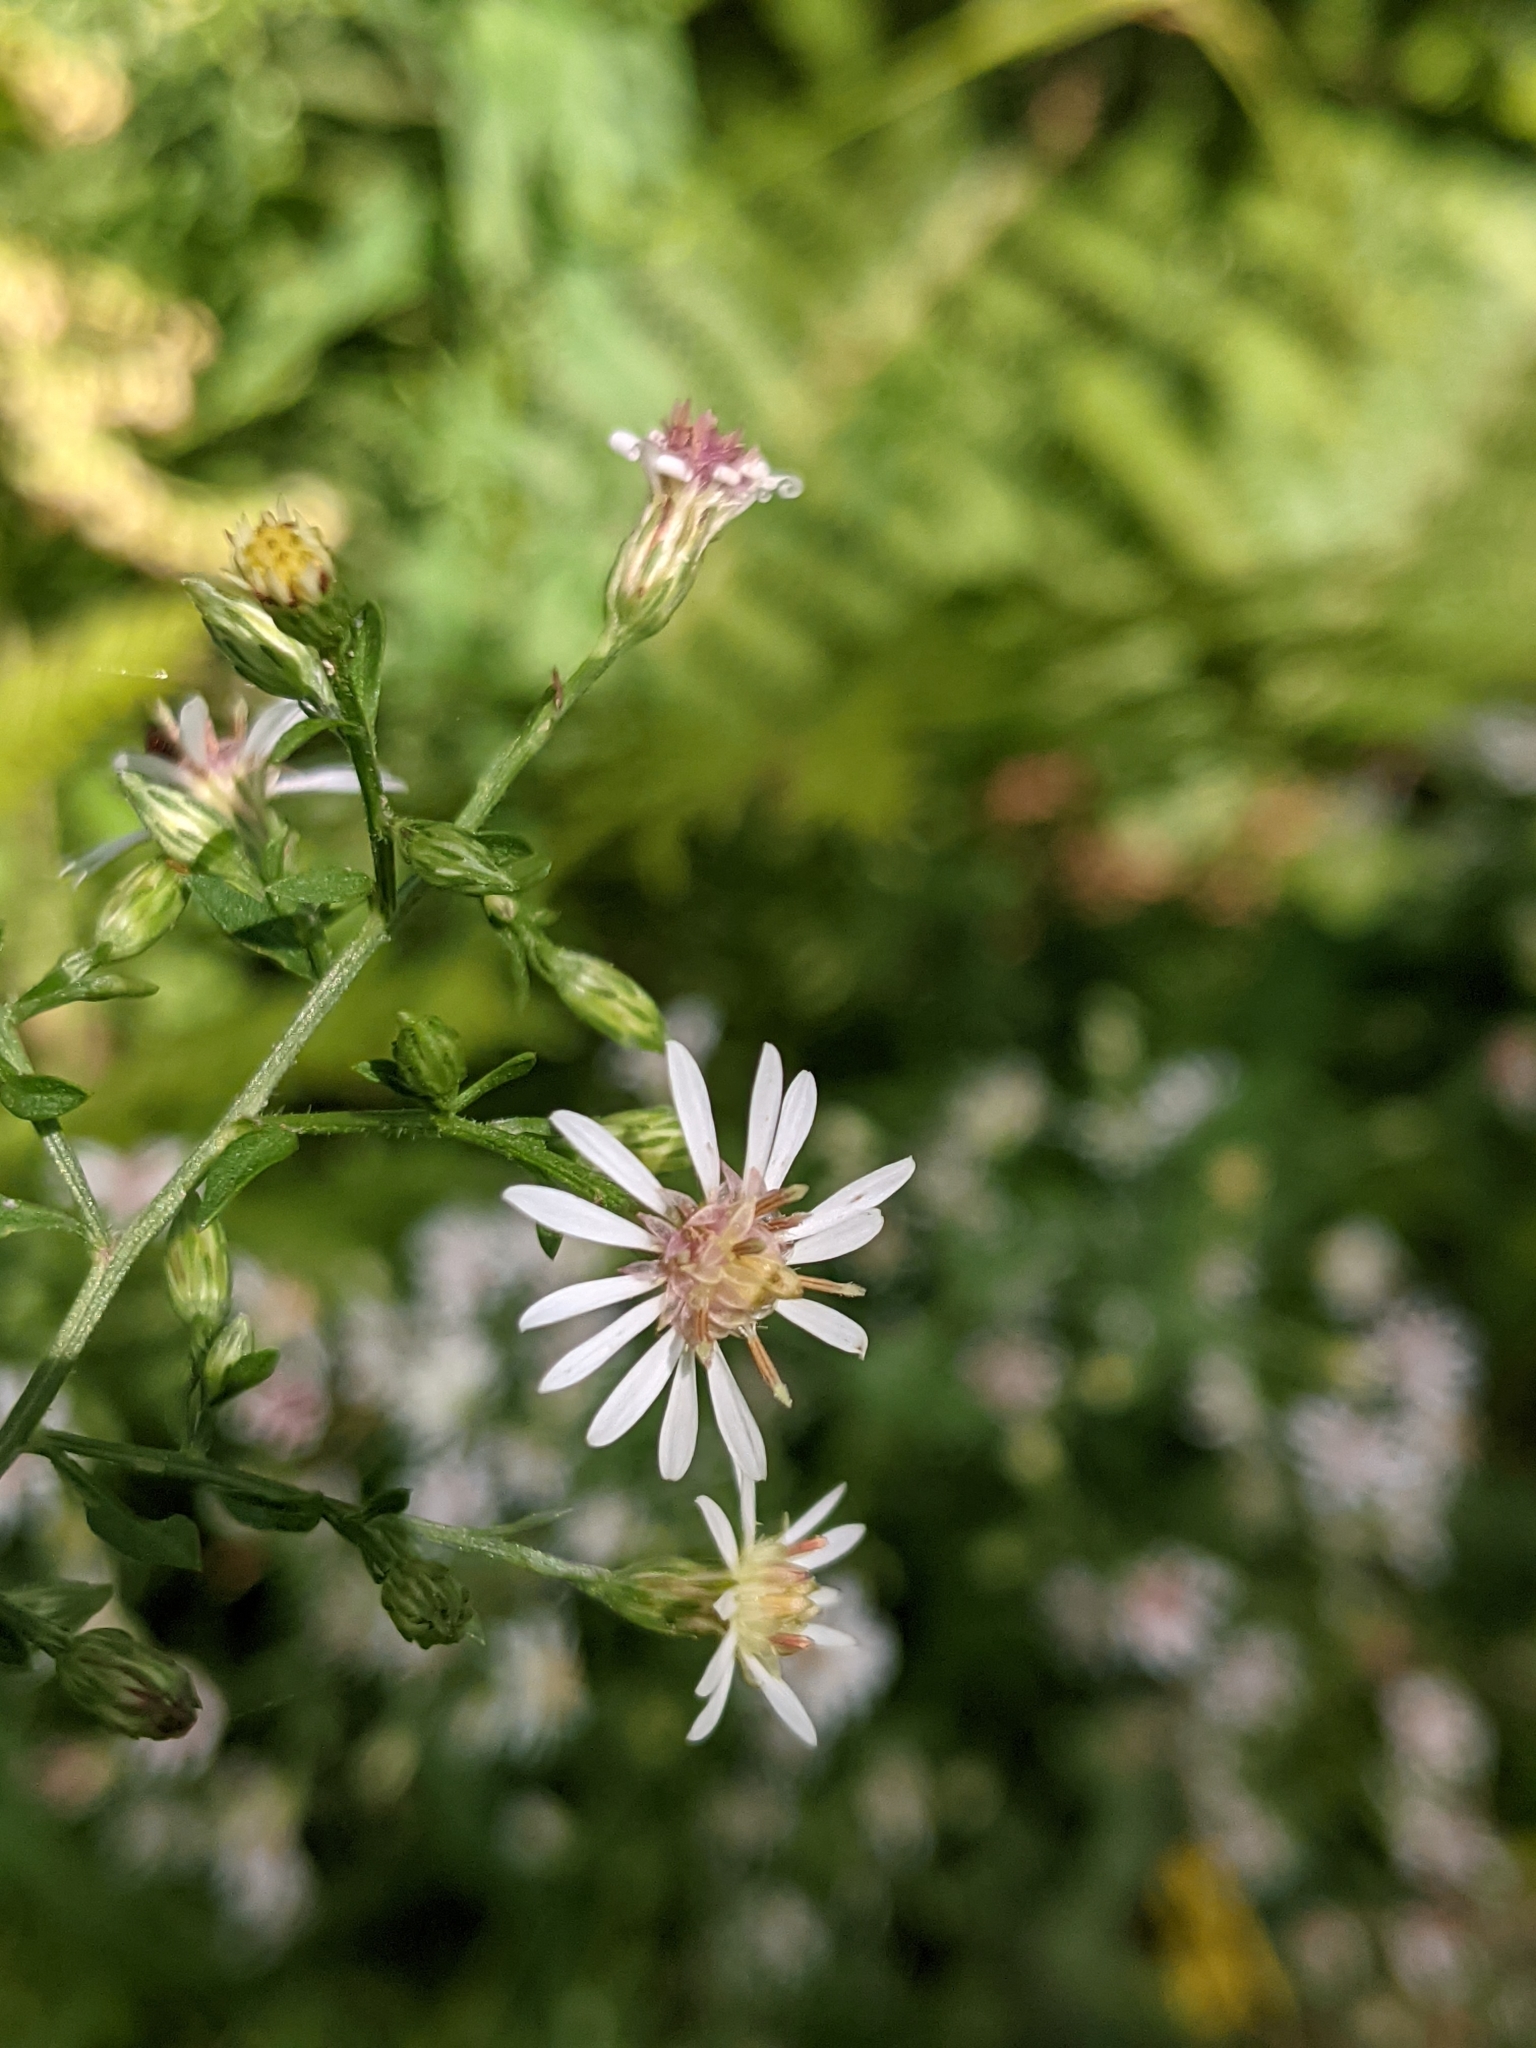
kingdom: Plantae
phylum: Tracheophyta
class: Magnoliopsida
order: Asterales
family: Asteraceae
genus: Symphyotrichum
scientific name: Symphyotrichum lateriflorum
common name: Calico aster
